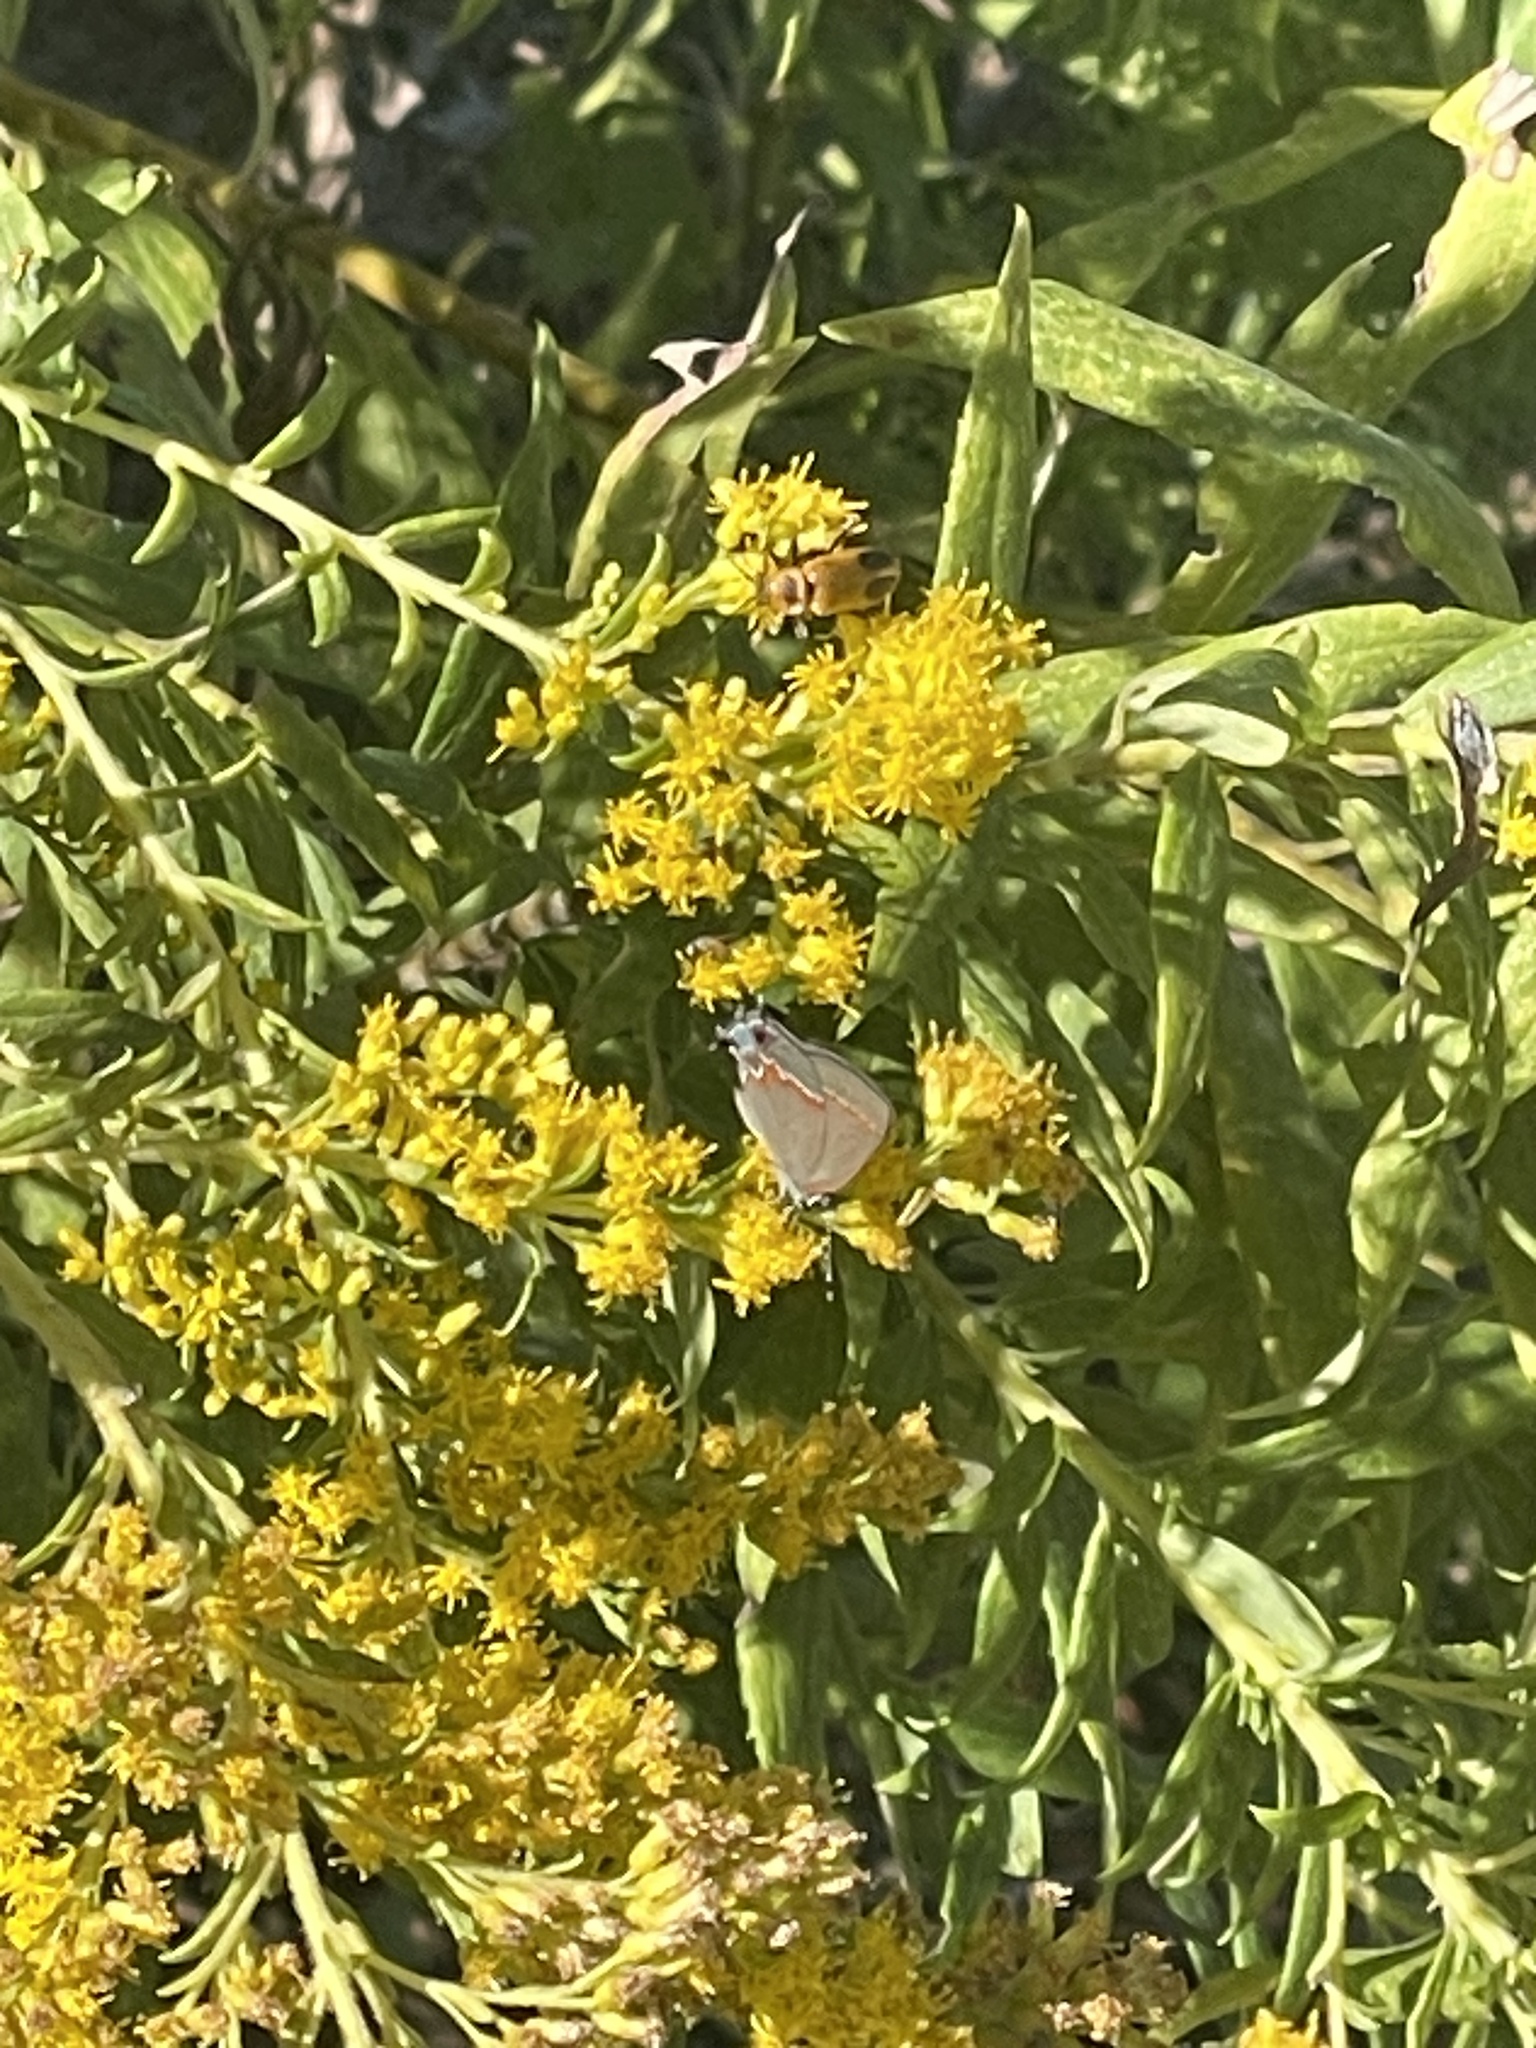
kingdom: Animalia
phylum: Arthropoda
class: Insecta
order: Lepidoptera
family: Lycaenidae
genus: Calycopis
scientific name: Calycopis cecrops
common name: Red-banded hairstreak
